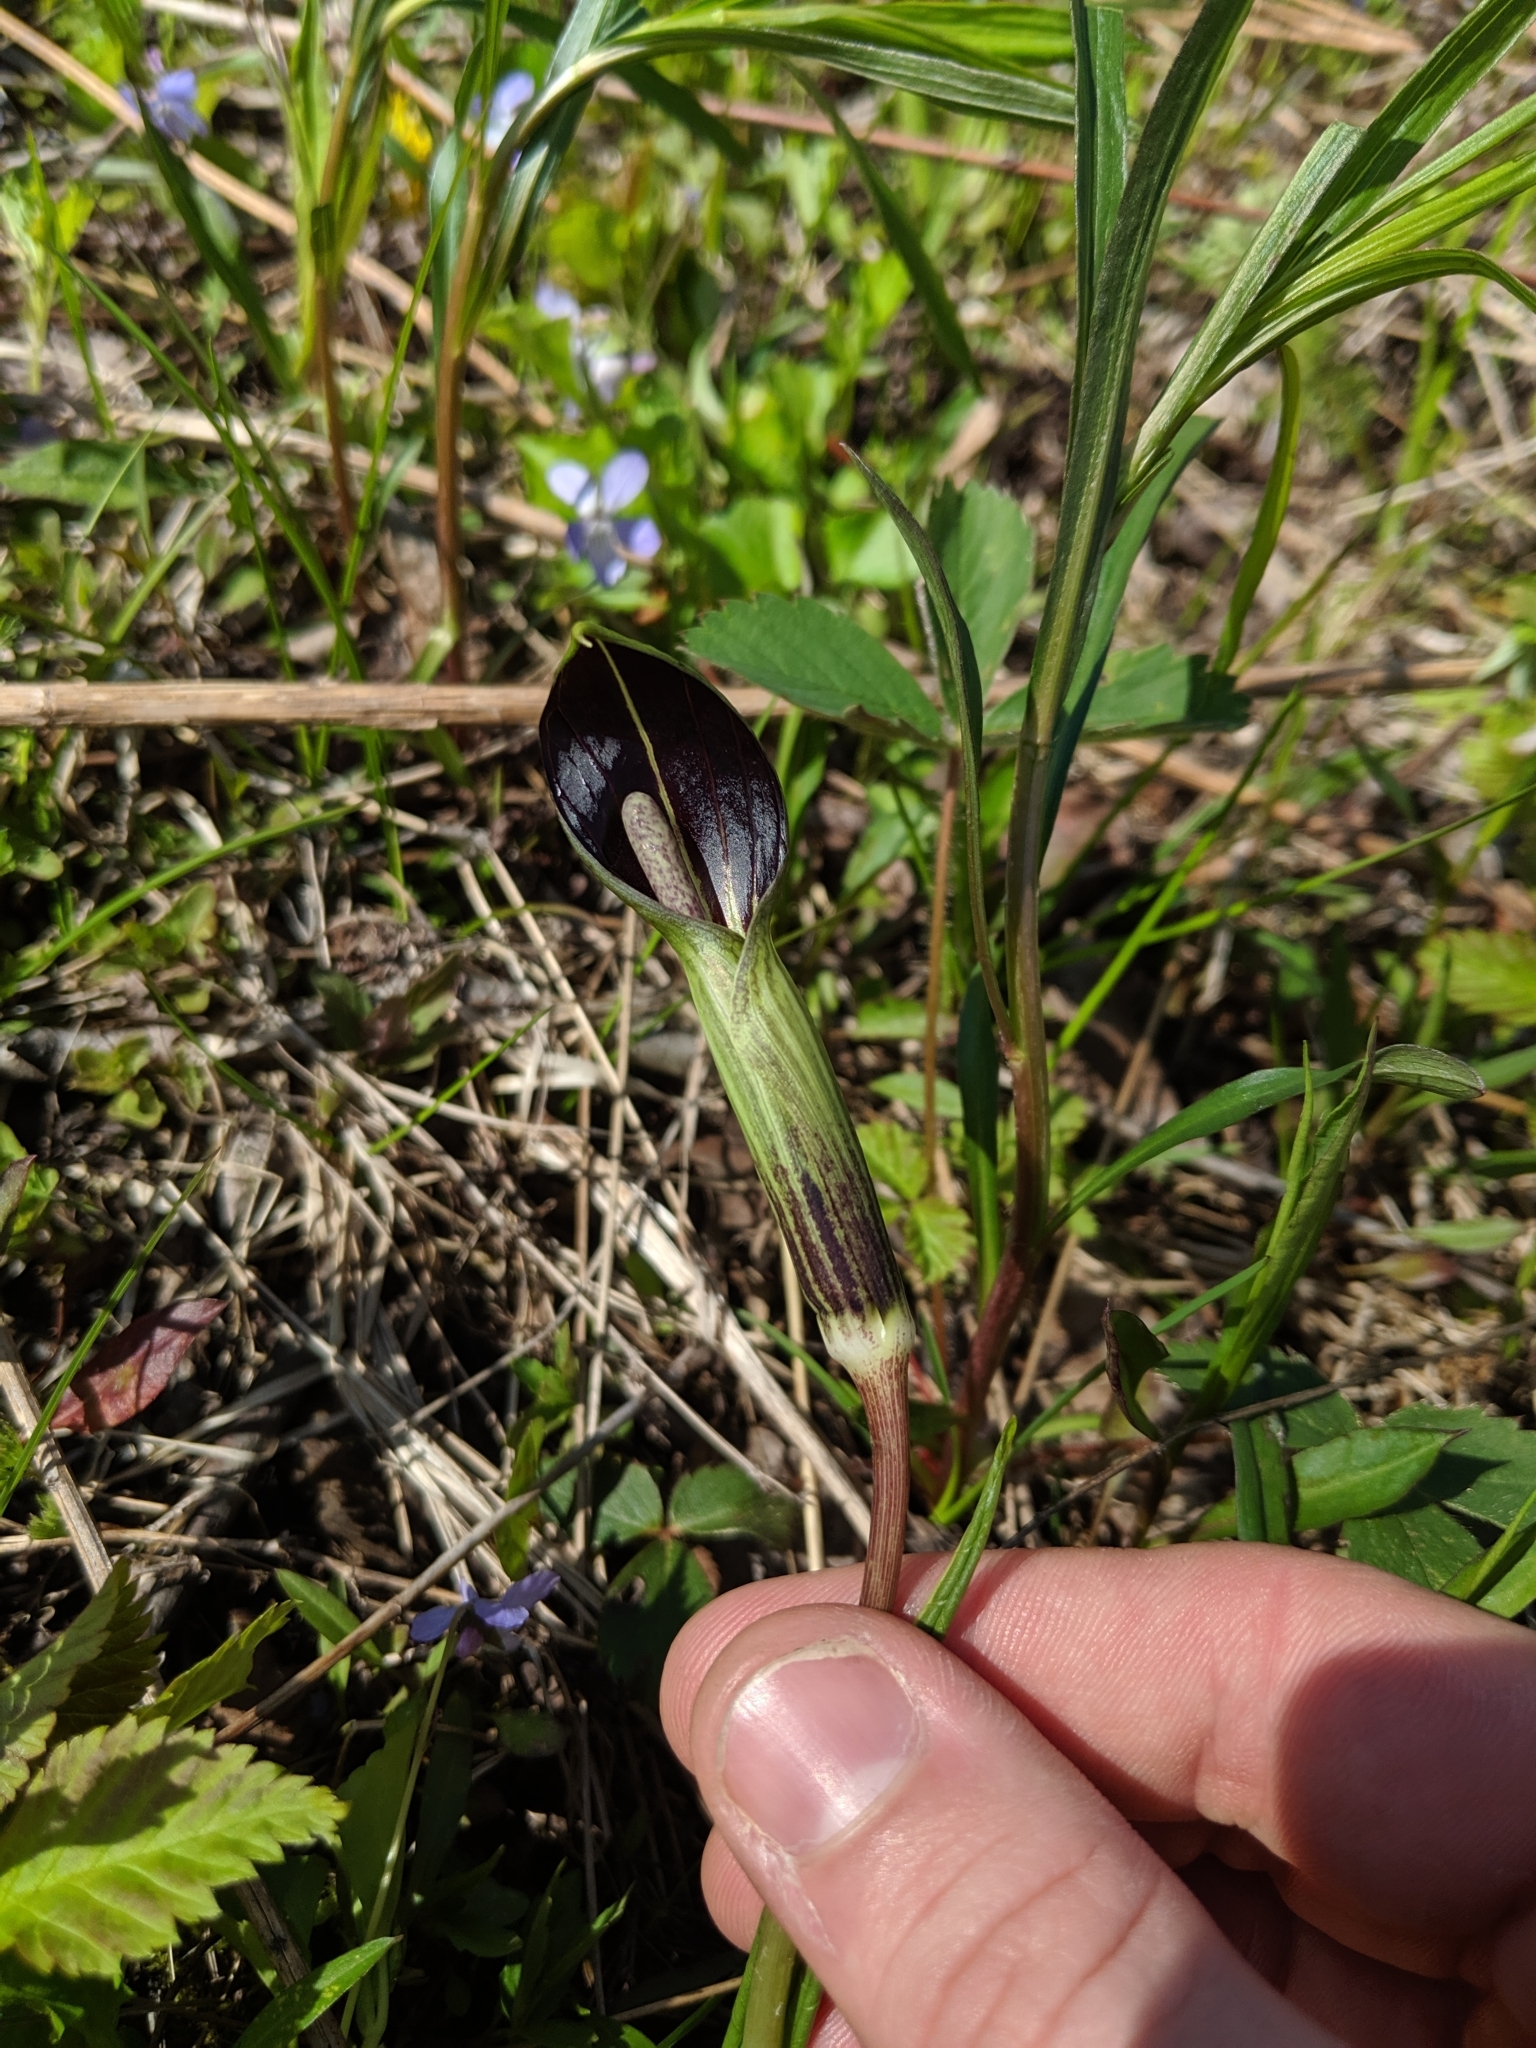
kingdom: Plantae
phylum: Tracheophyta
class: Liliopsida
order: Alismatales
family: Araceae
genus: Arisaema
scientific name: Arisaema triphyllum
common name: Jack-in-the-pulpit
